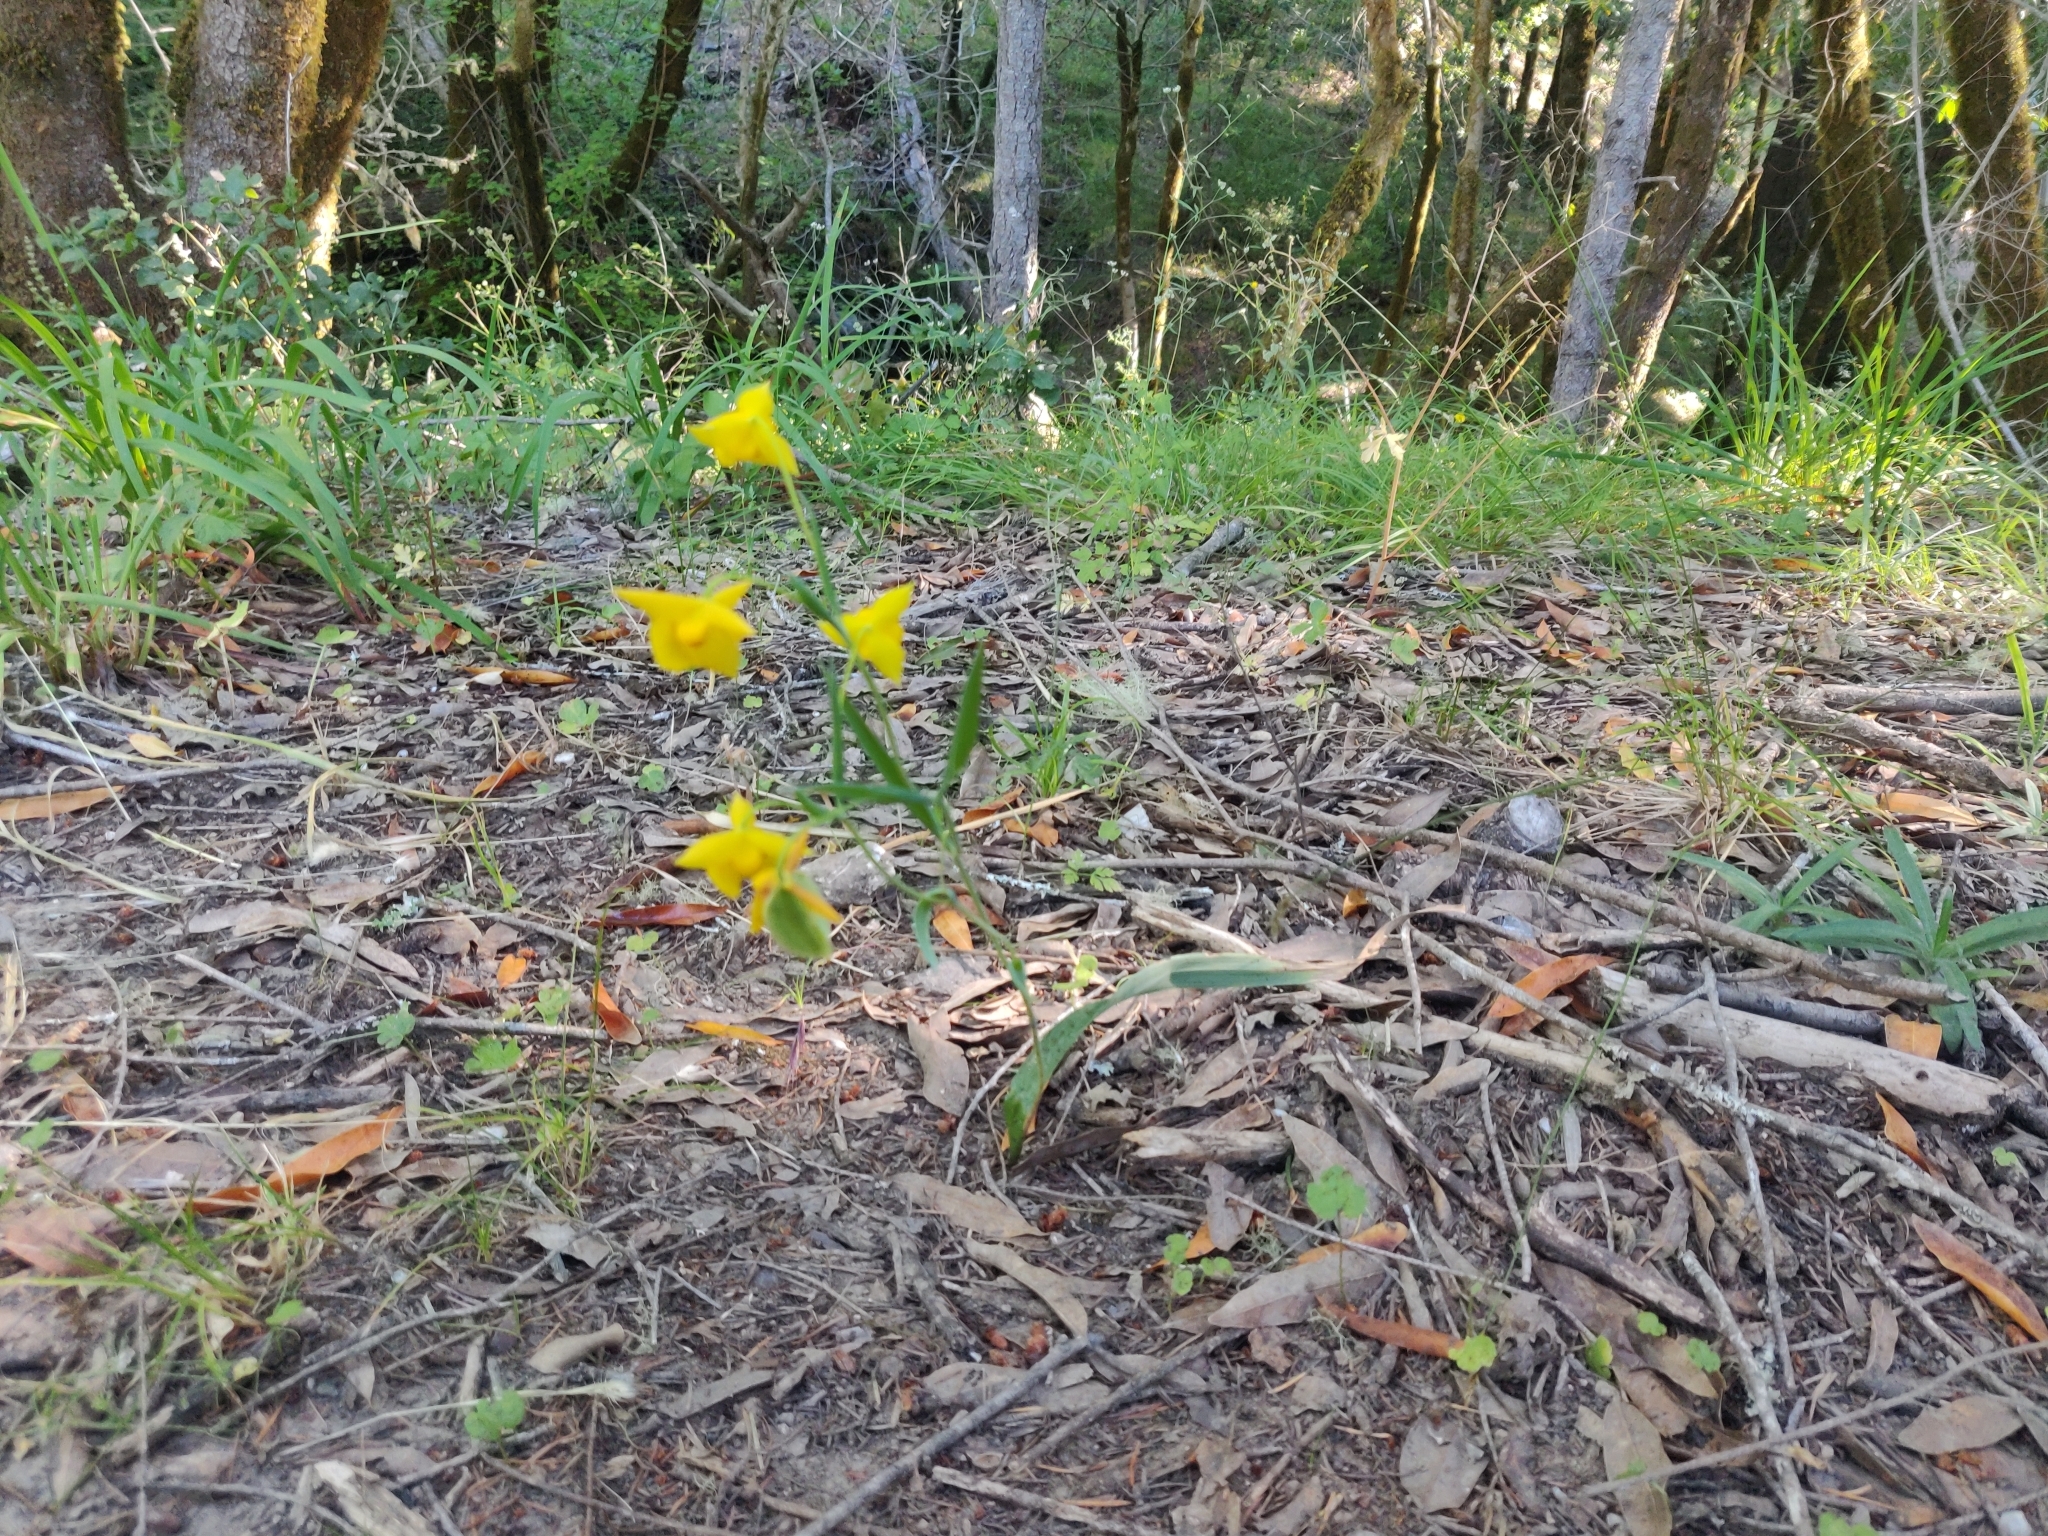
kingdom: Plantae
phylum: Tracheophyta
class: Liliopsida
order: Liliales
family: Liliaceae
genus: Calochortus
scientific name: Calochortus amabilis
